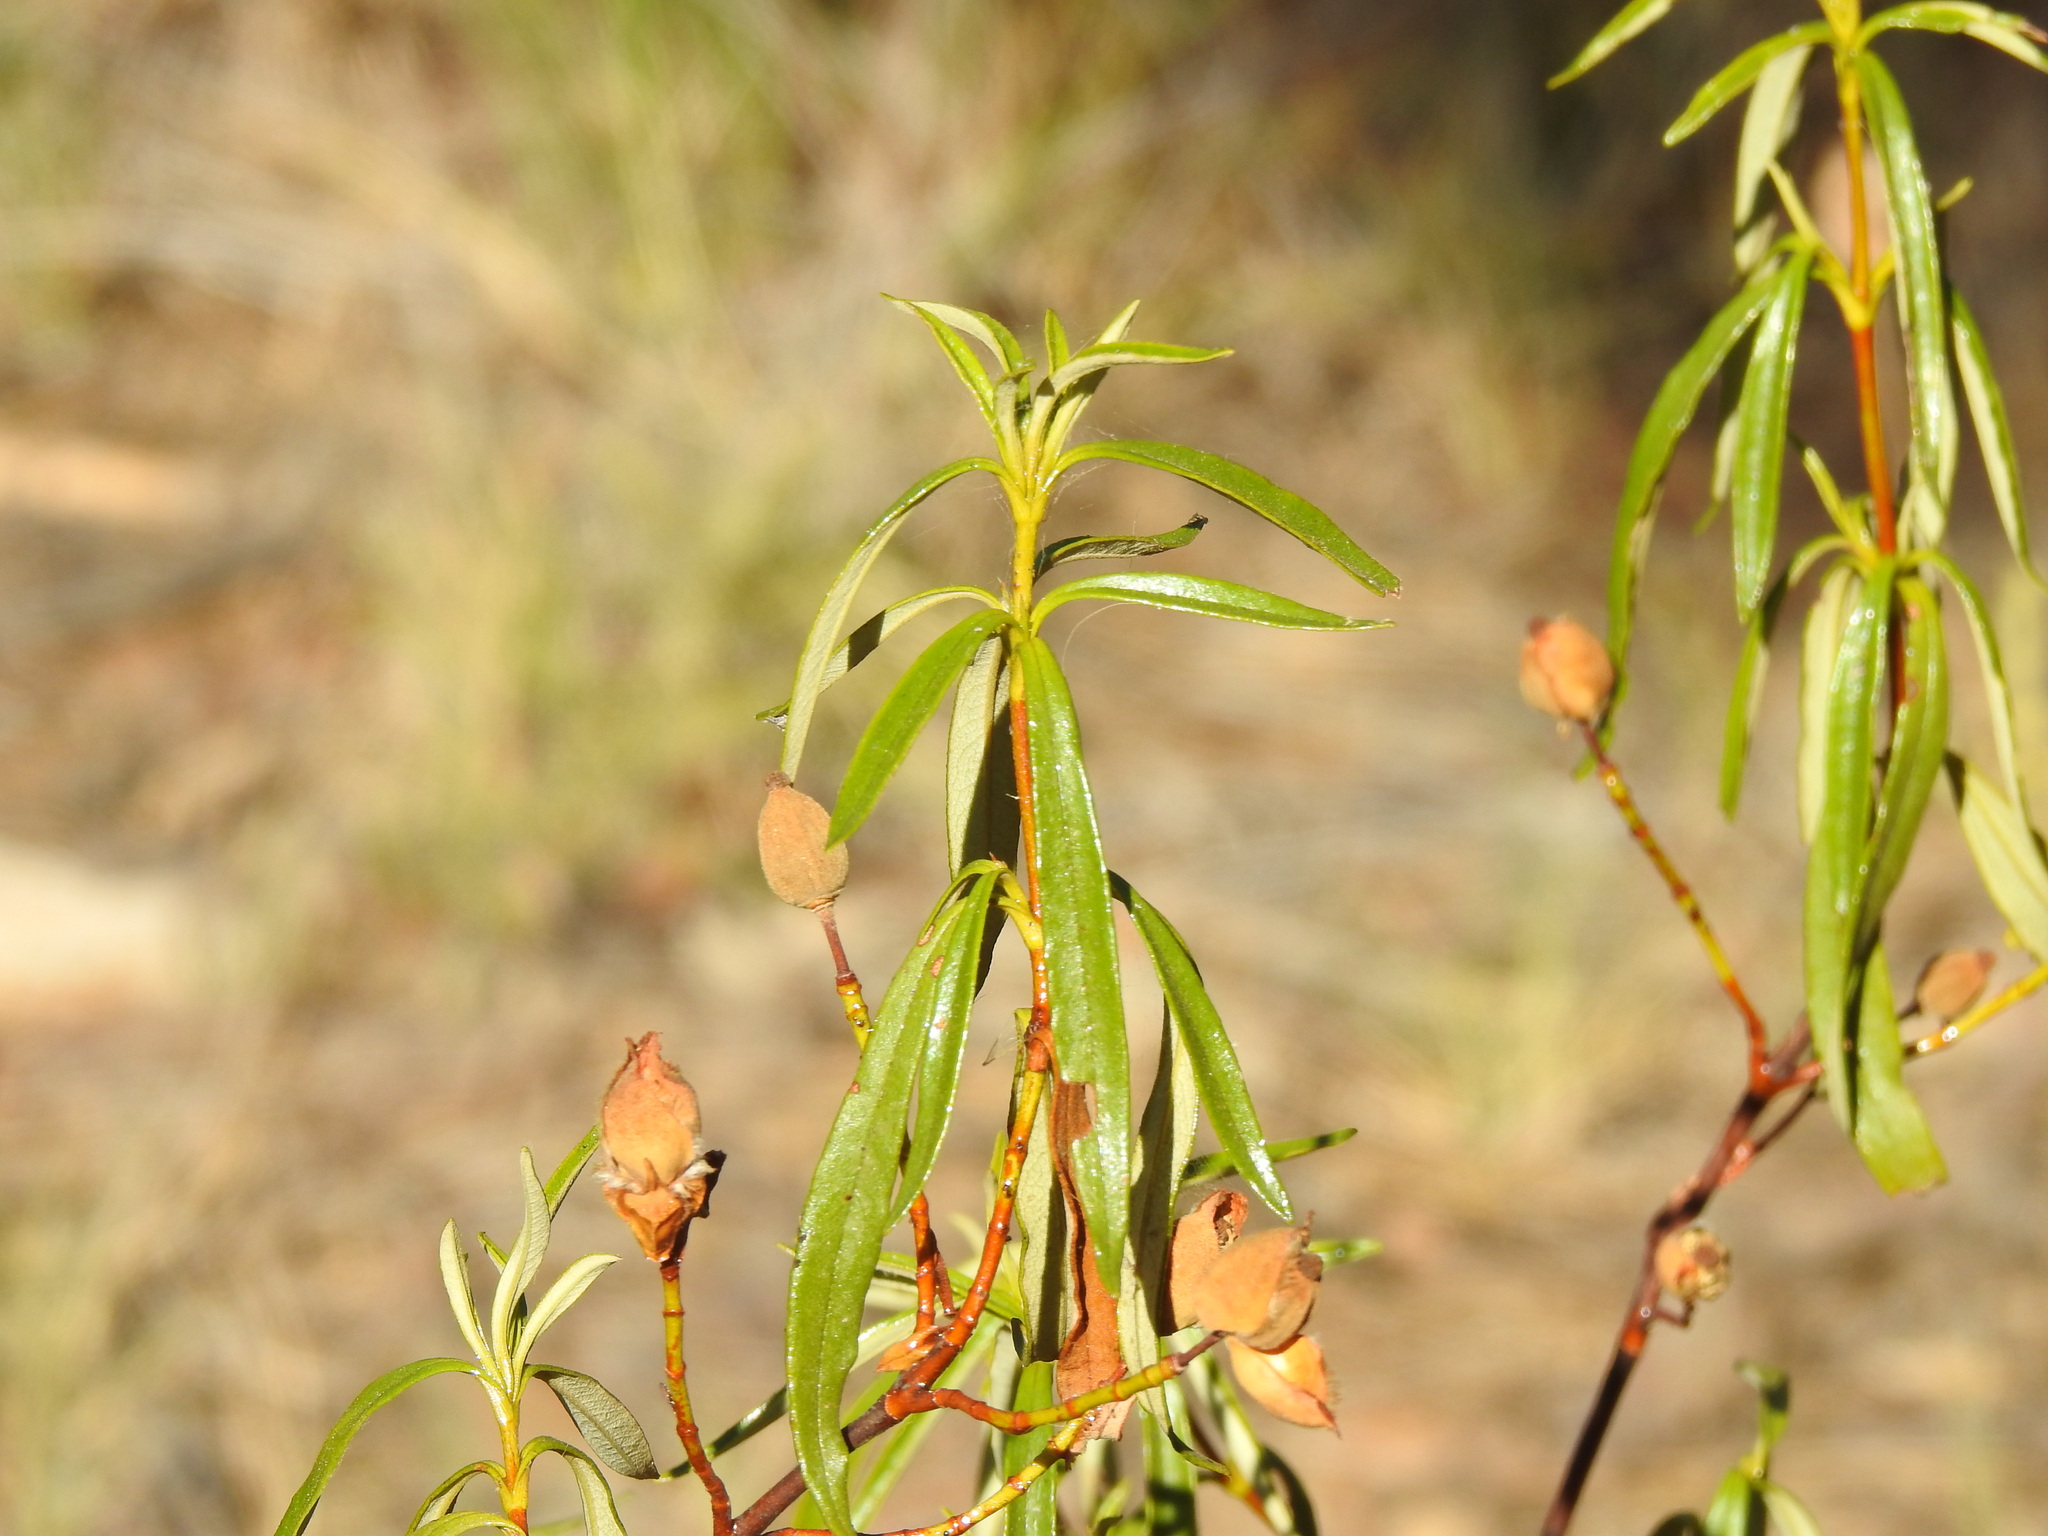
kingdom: Plantae
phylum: Tracheophyta
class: Magnoliopsida
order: Malvales
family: Cistaceae
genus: Cistus
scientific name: Cistus ladanifer
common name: Common gum cistus
